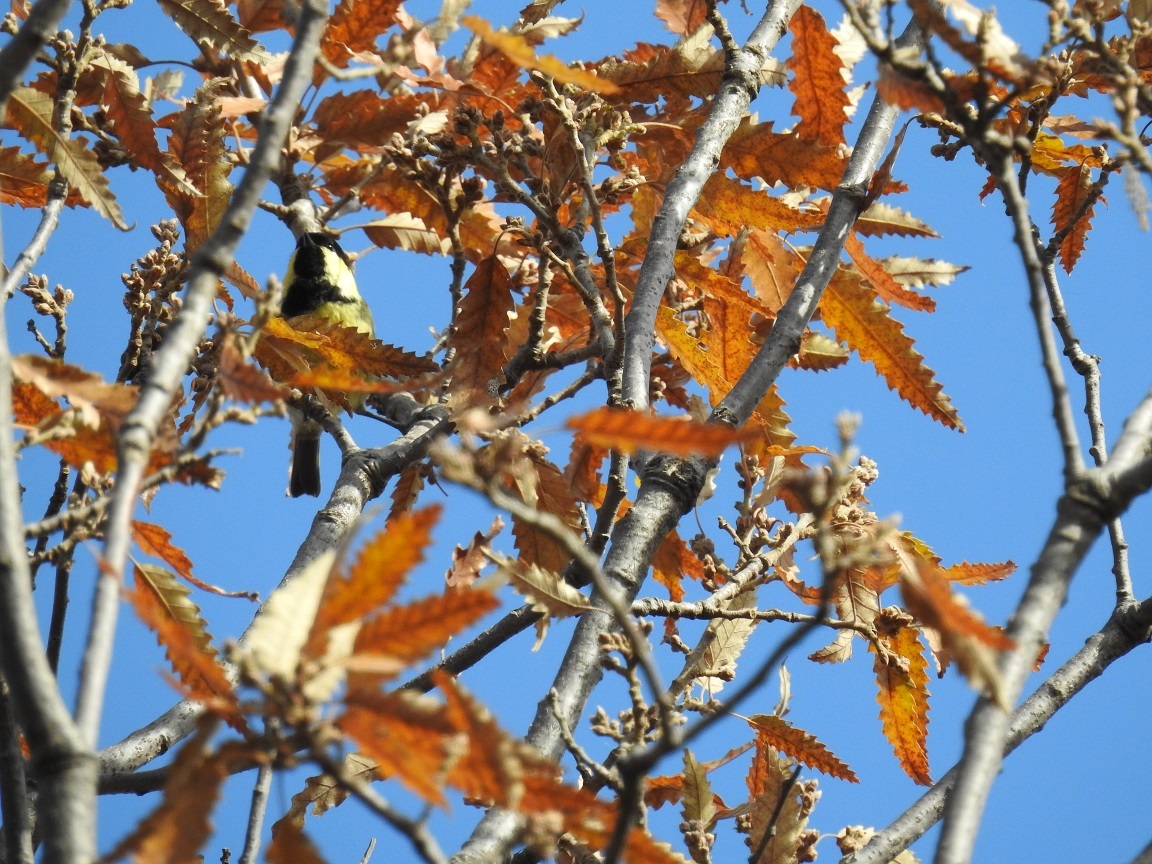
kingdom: Animalia
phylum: Chordata
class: Aves
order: Passeriformes
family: Paridae
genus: Periparus
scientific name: Periparus ater
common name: Coal tit
